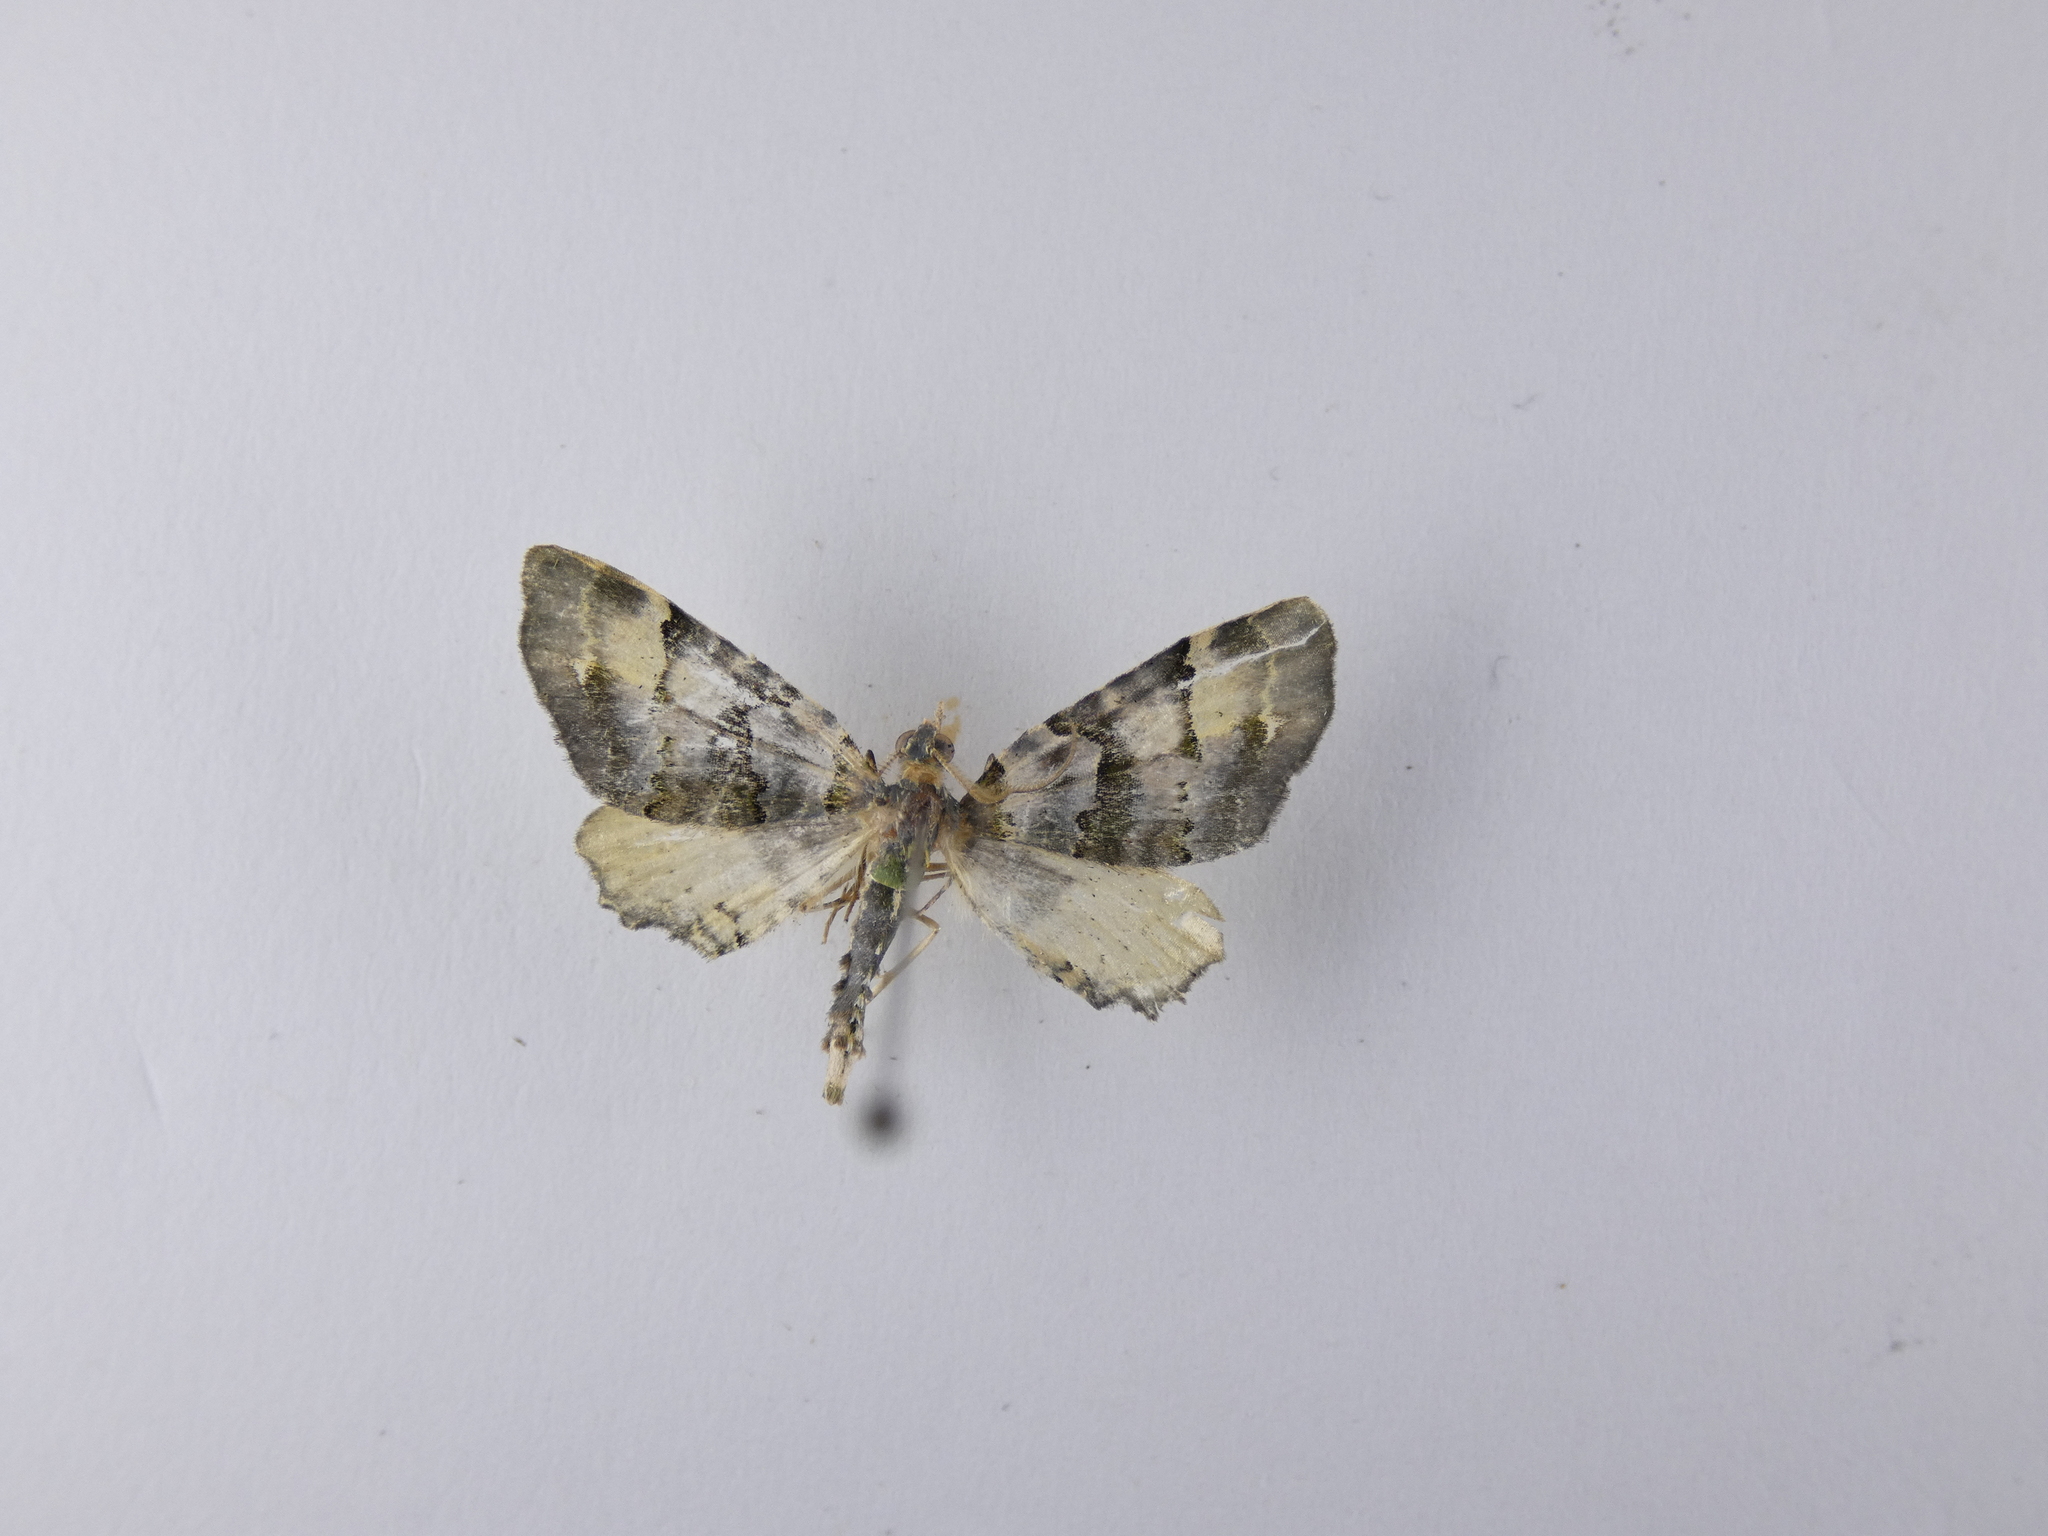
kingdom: Animalia
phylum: Arthropoda
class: Insecta
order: Lepidoptera
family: Geometridae
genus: Elvia
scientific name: Elvia glaucata
